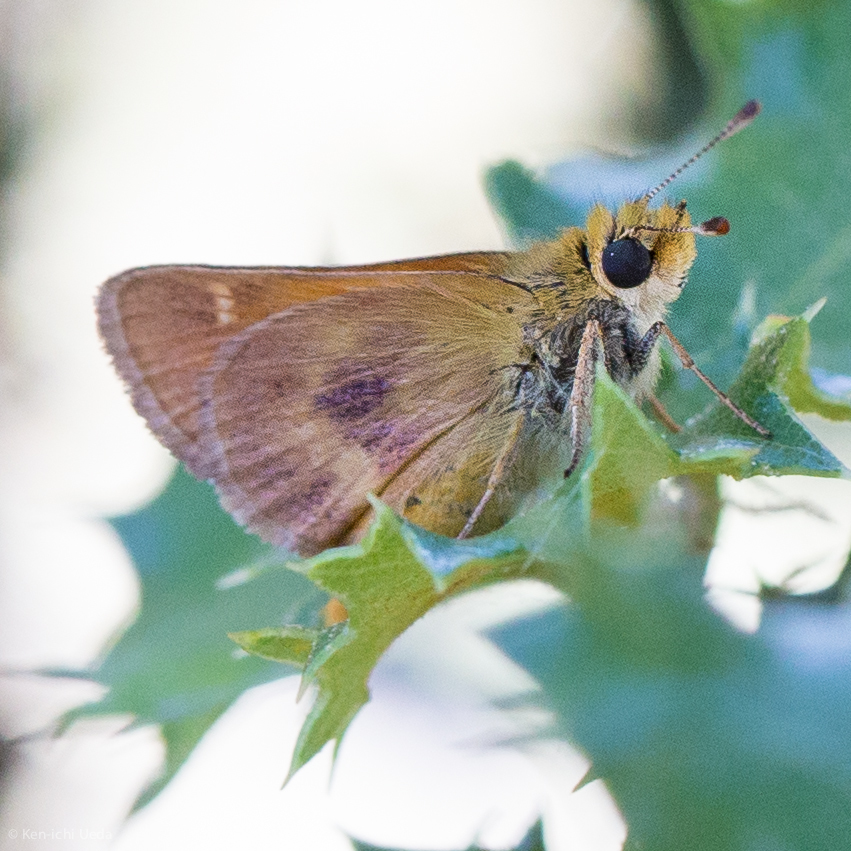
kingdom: Animalia
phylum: Arthropoda
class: Insecta
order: Lepidoptera
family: Hesperiidae
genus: Ochlodes
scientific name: Ochlodes agricola
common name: Rural skipper
